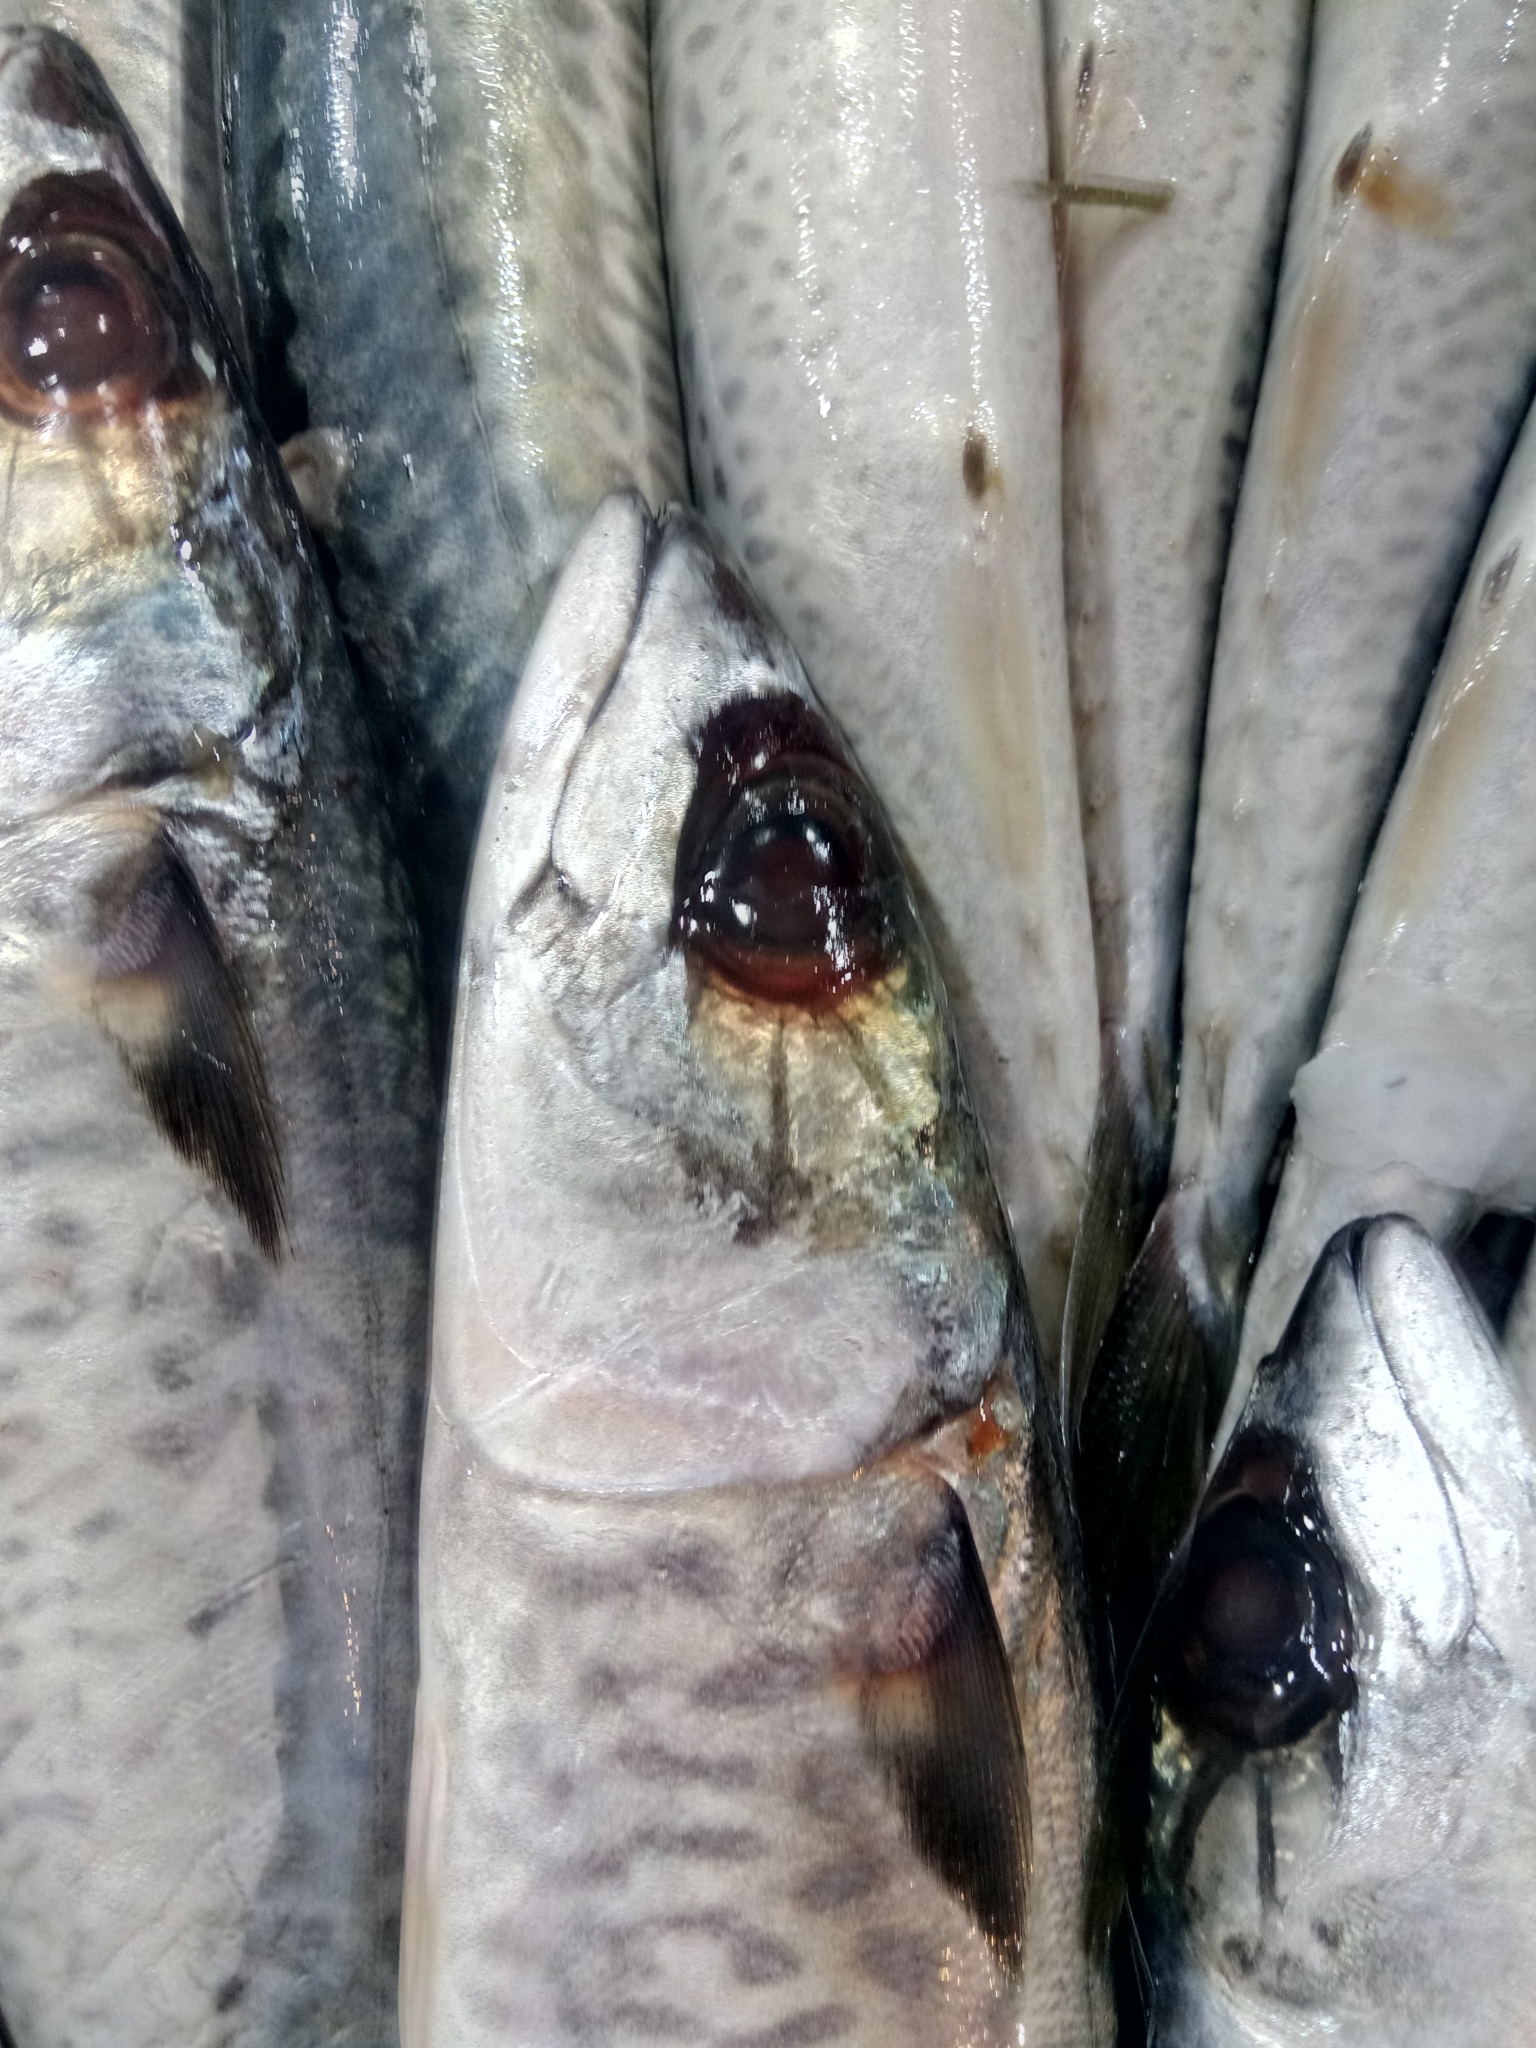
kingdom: Animalia
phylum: Chordata
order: Perciformes
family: Scombridae
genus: Scomber
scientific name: Scomber colias
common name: Atlantic chub mackerel
